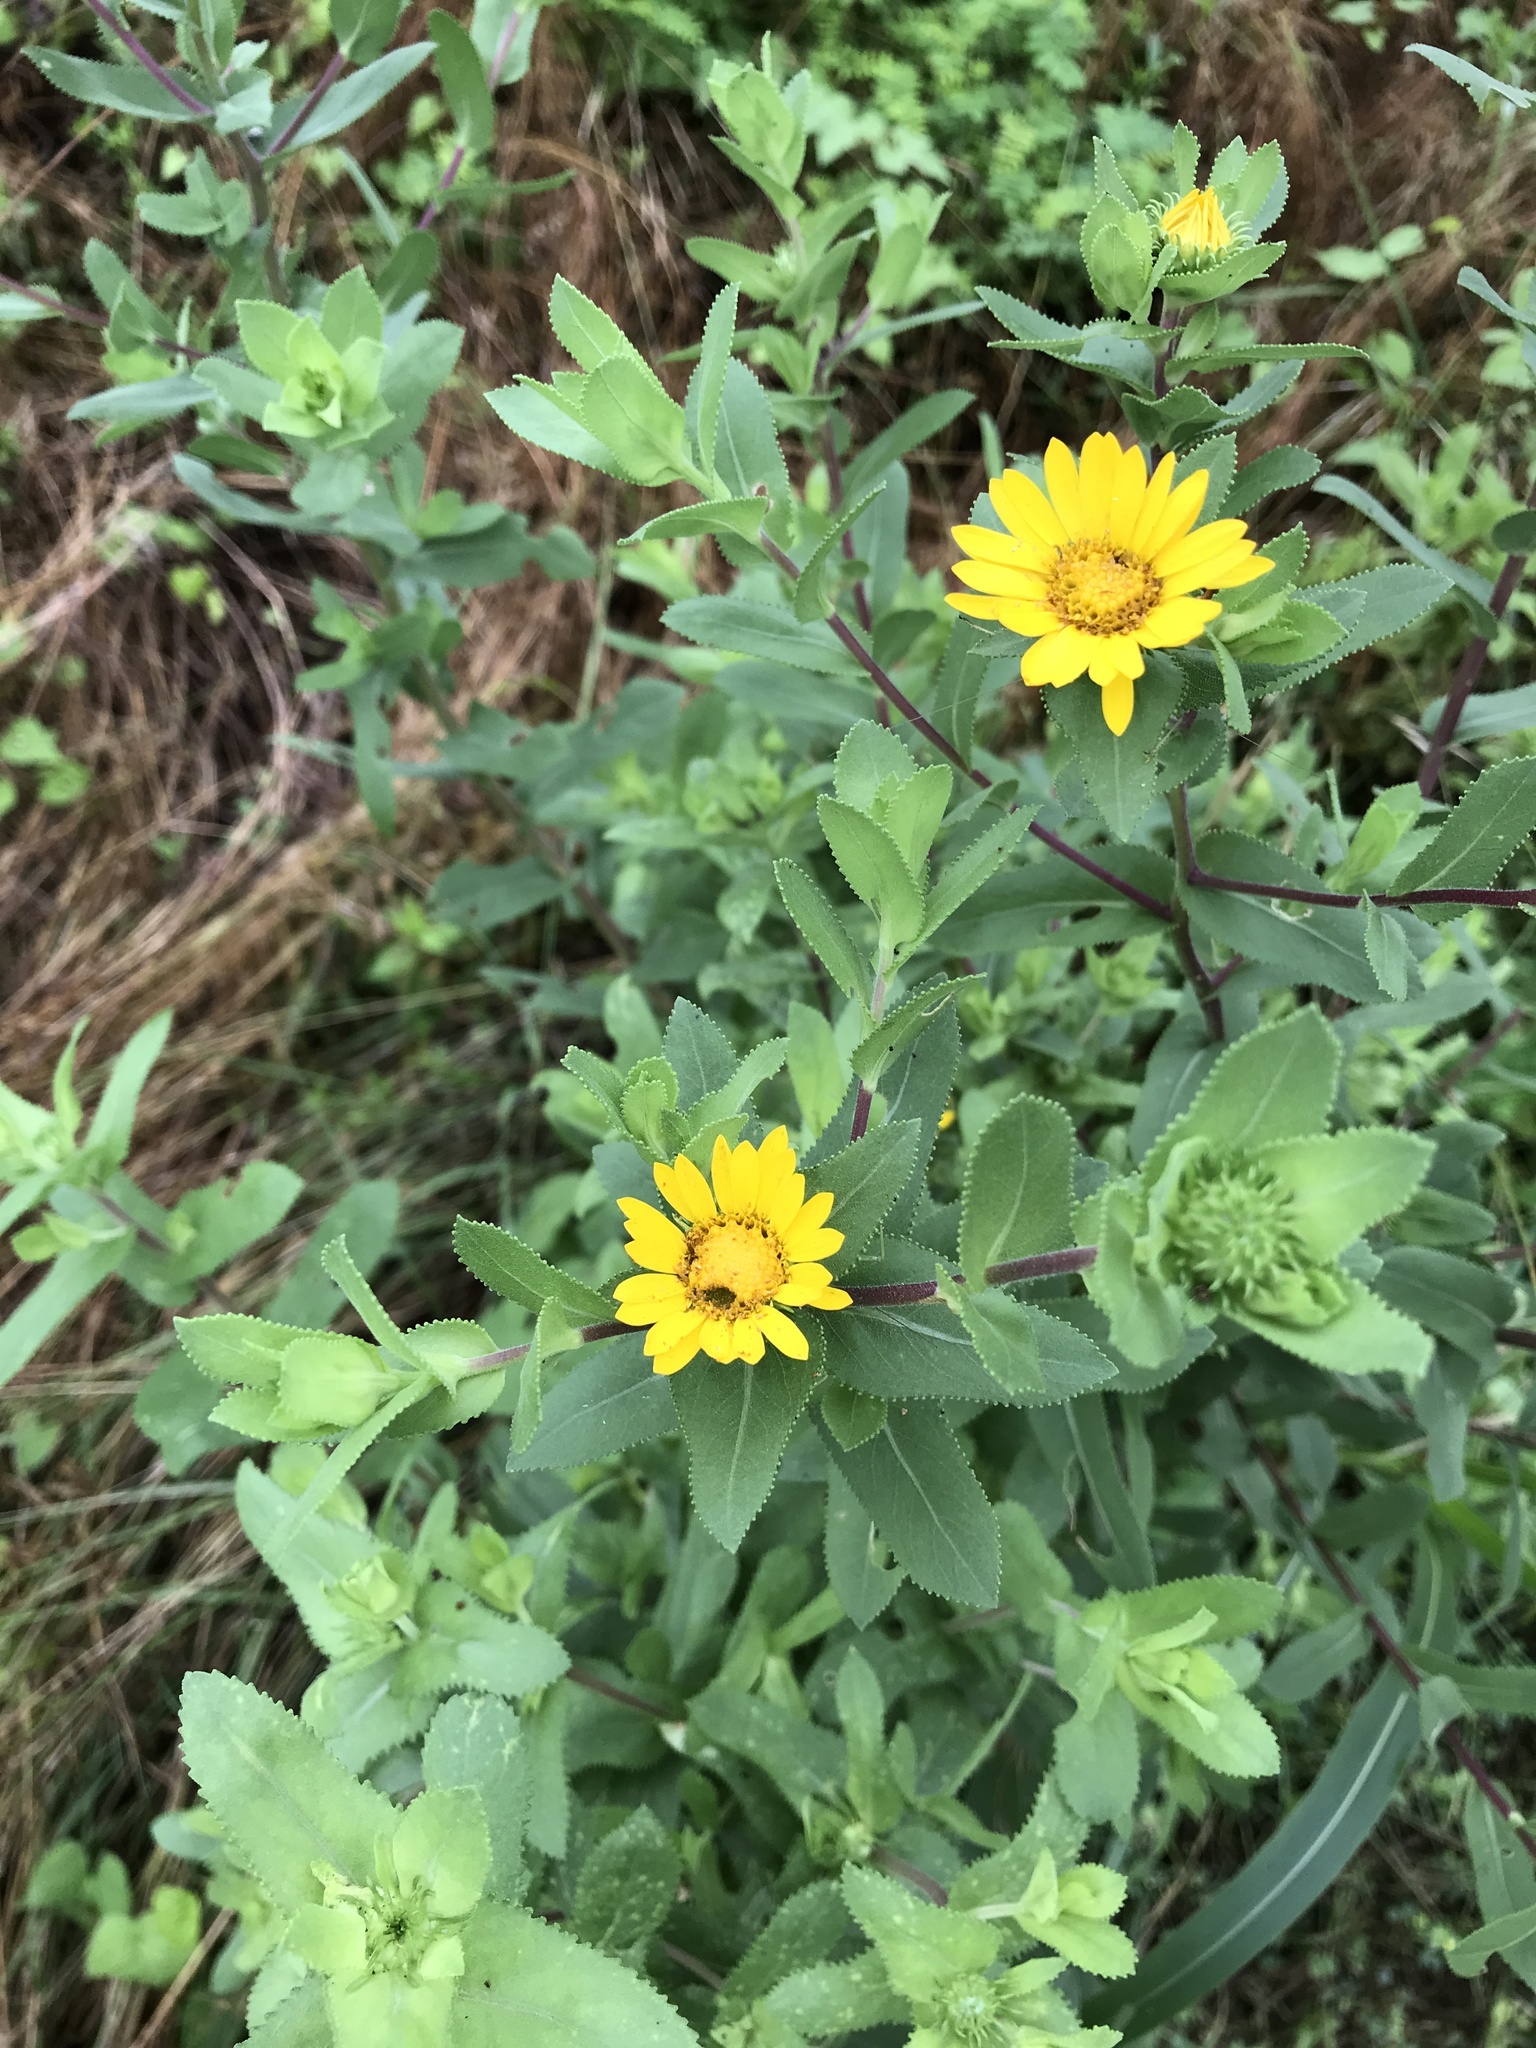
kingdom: Plantae
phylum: Tracheophyta
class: Magnoliopsida
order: Asterales
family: Asteraceae
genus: Grindelia
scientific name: Grindelia adenodonta
